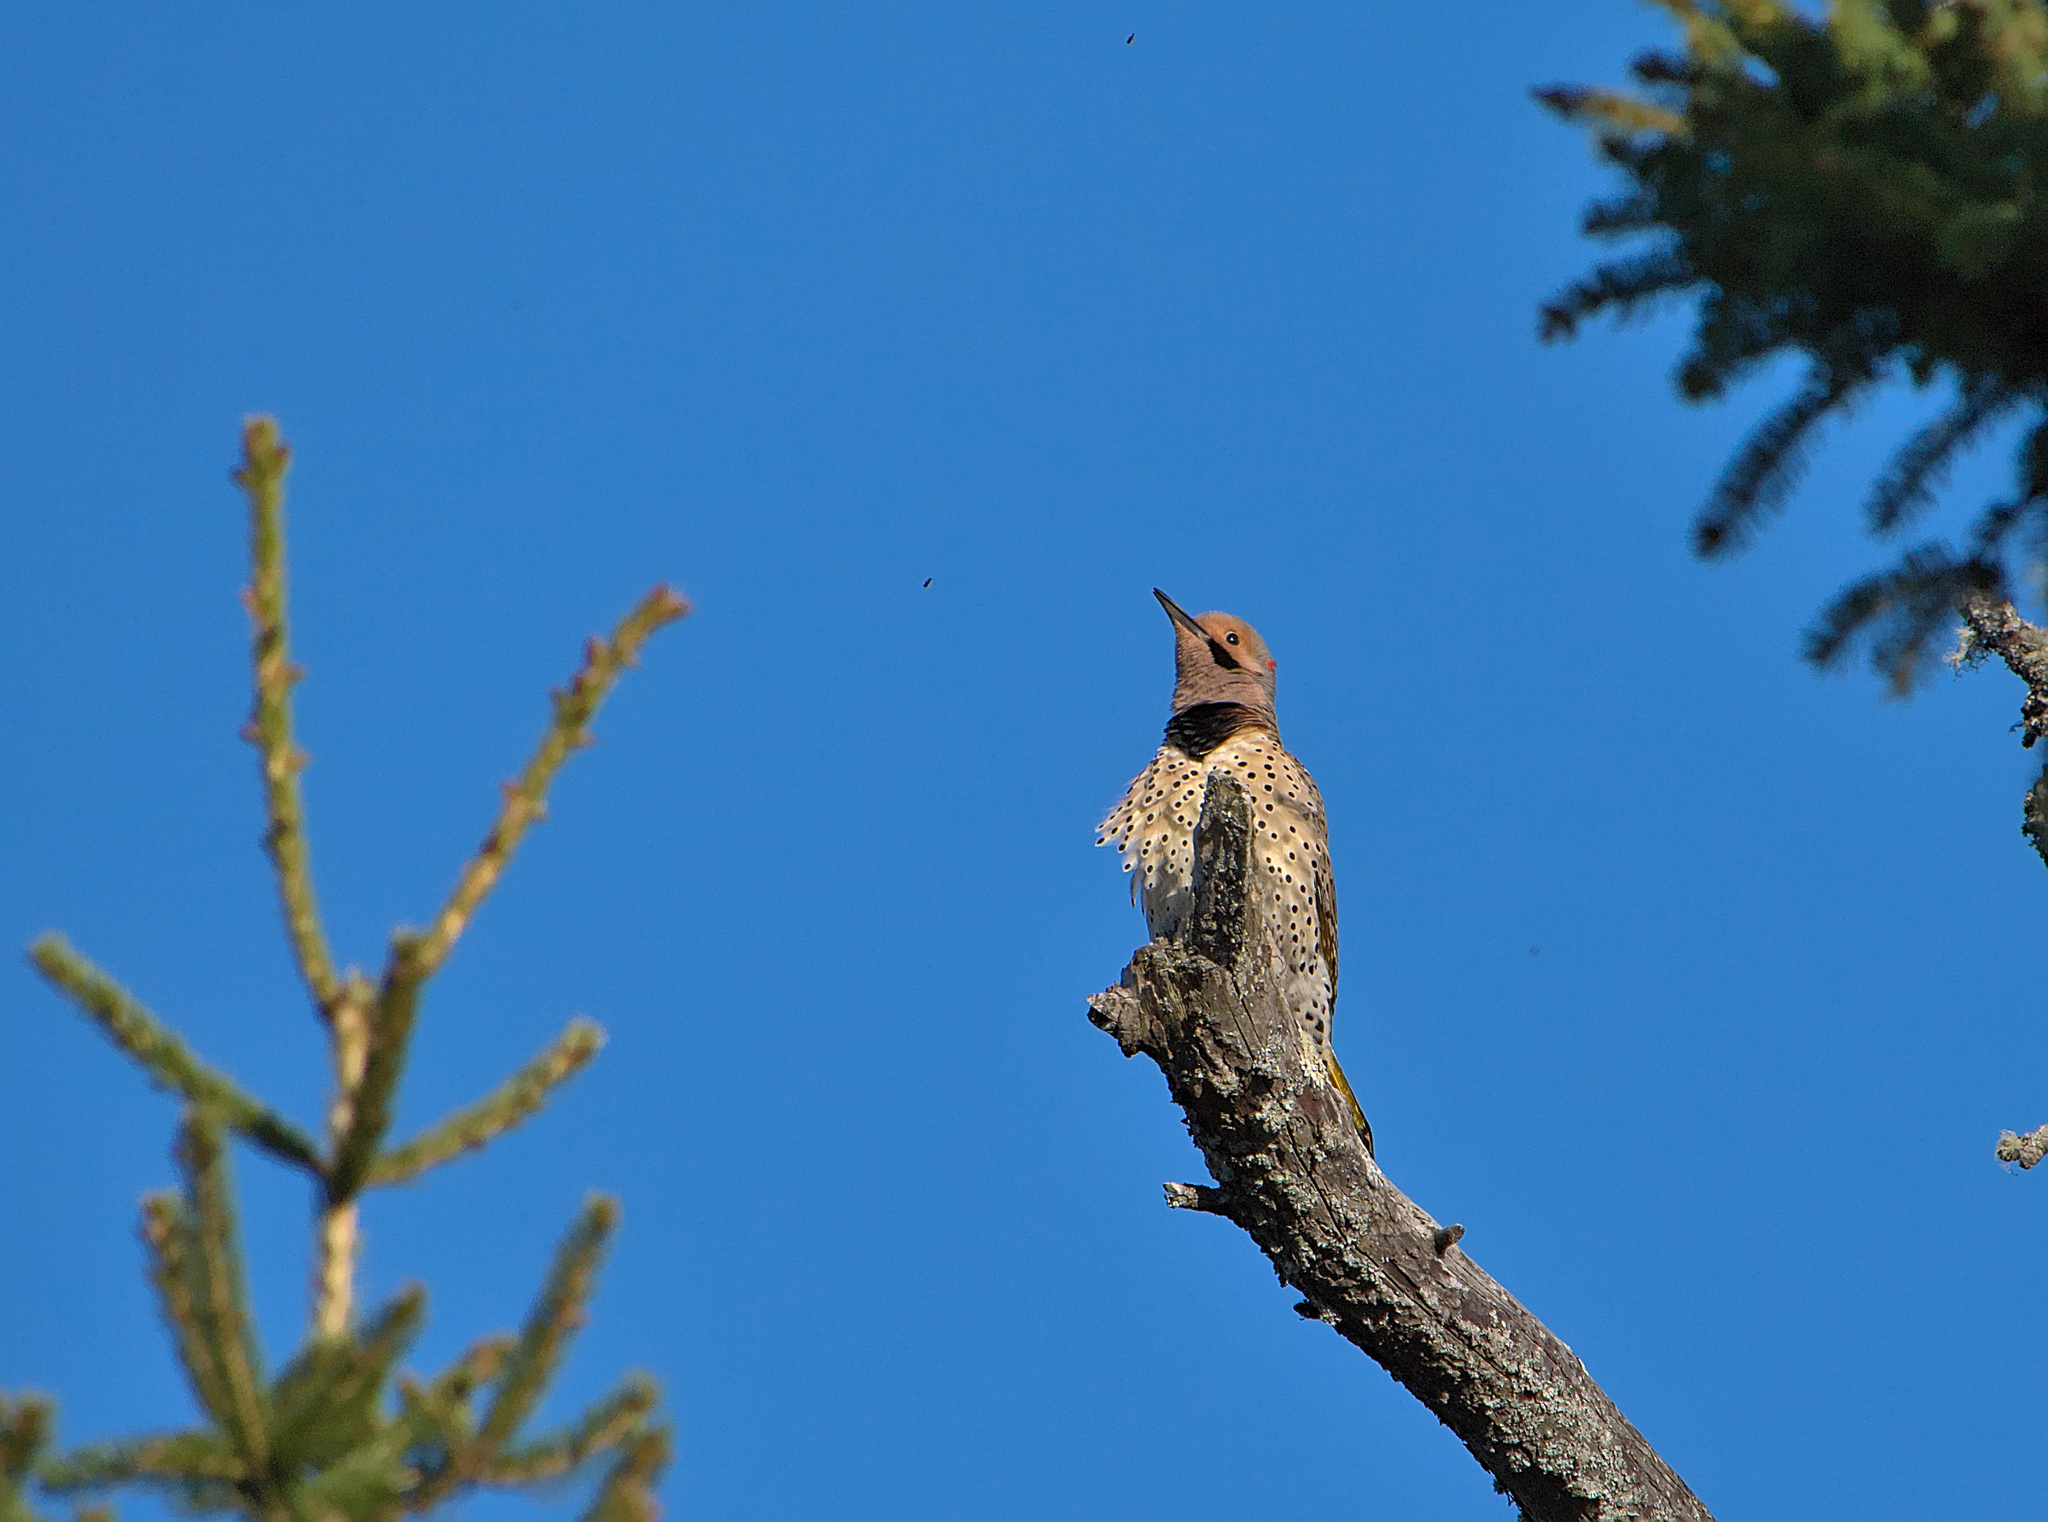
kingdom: Animalia
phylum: Chordata
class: Aves
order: Piciformes
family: Picidae
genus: Colaptes
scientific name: Colaptes auratus
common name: Northern flicker
